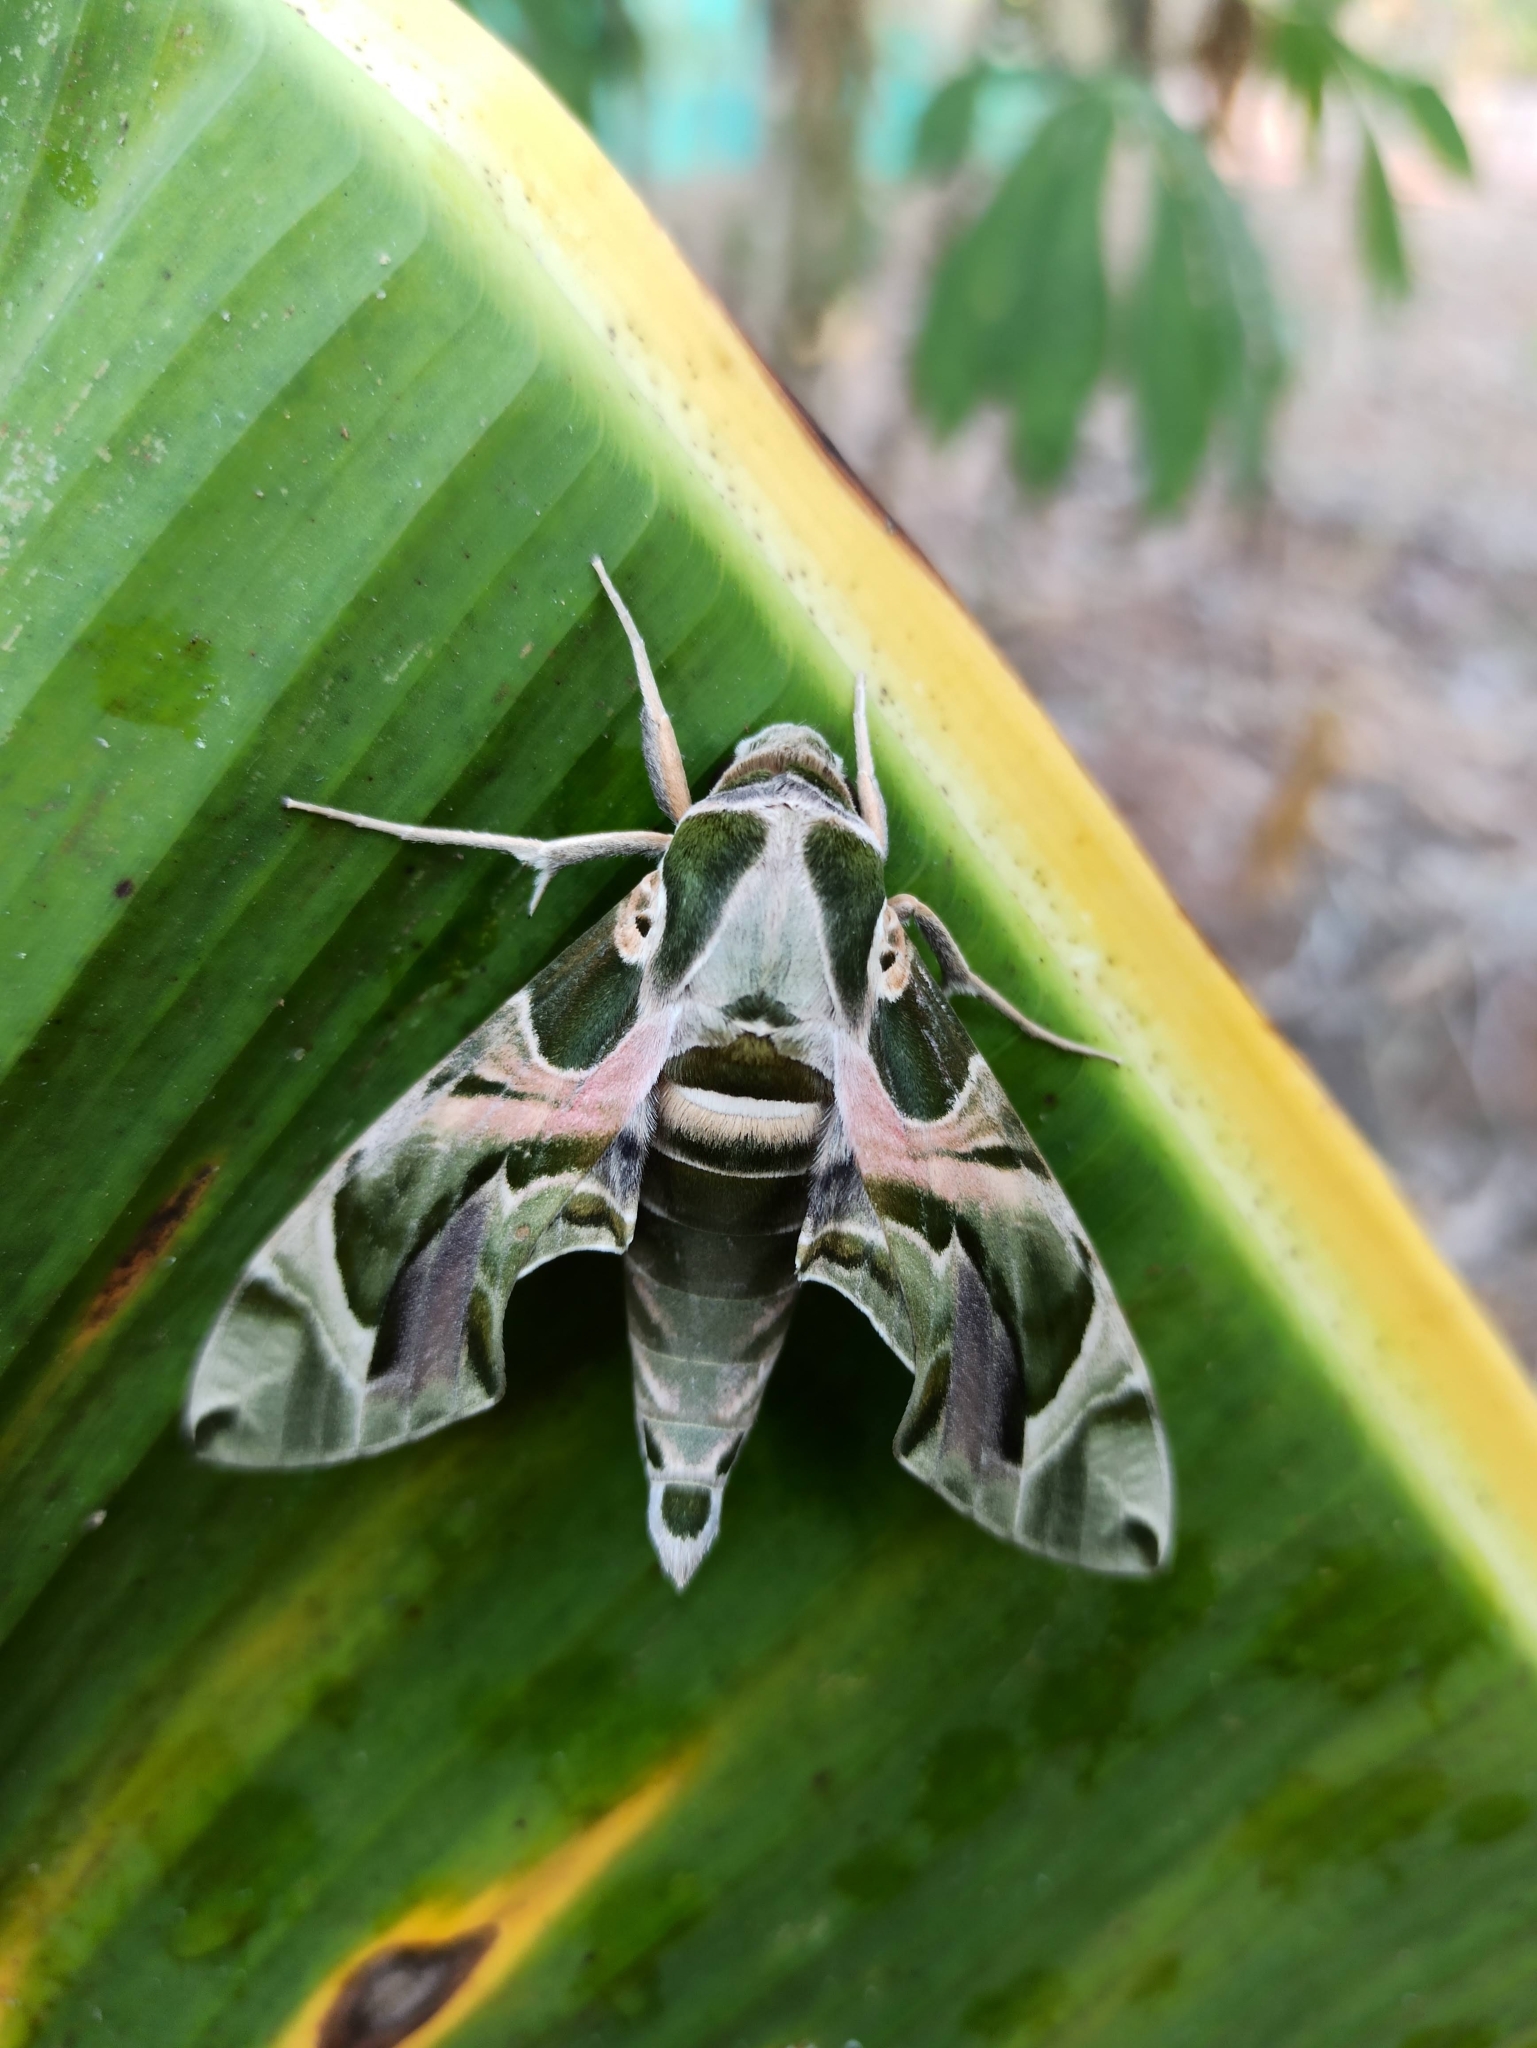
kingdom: Animalia
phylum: Arthropoda
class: Insecta
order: Lepidoptera
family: Sphingidae
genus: Daphnis
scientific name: Daphnis nerii
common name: Oleander hawk-moth
